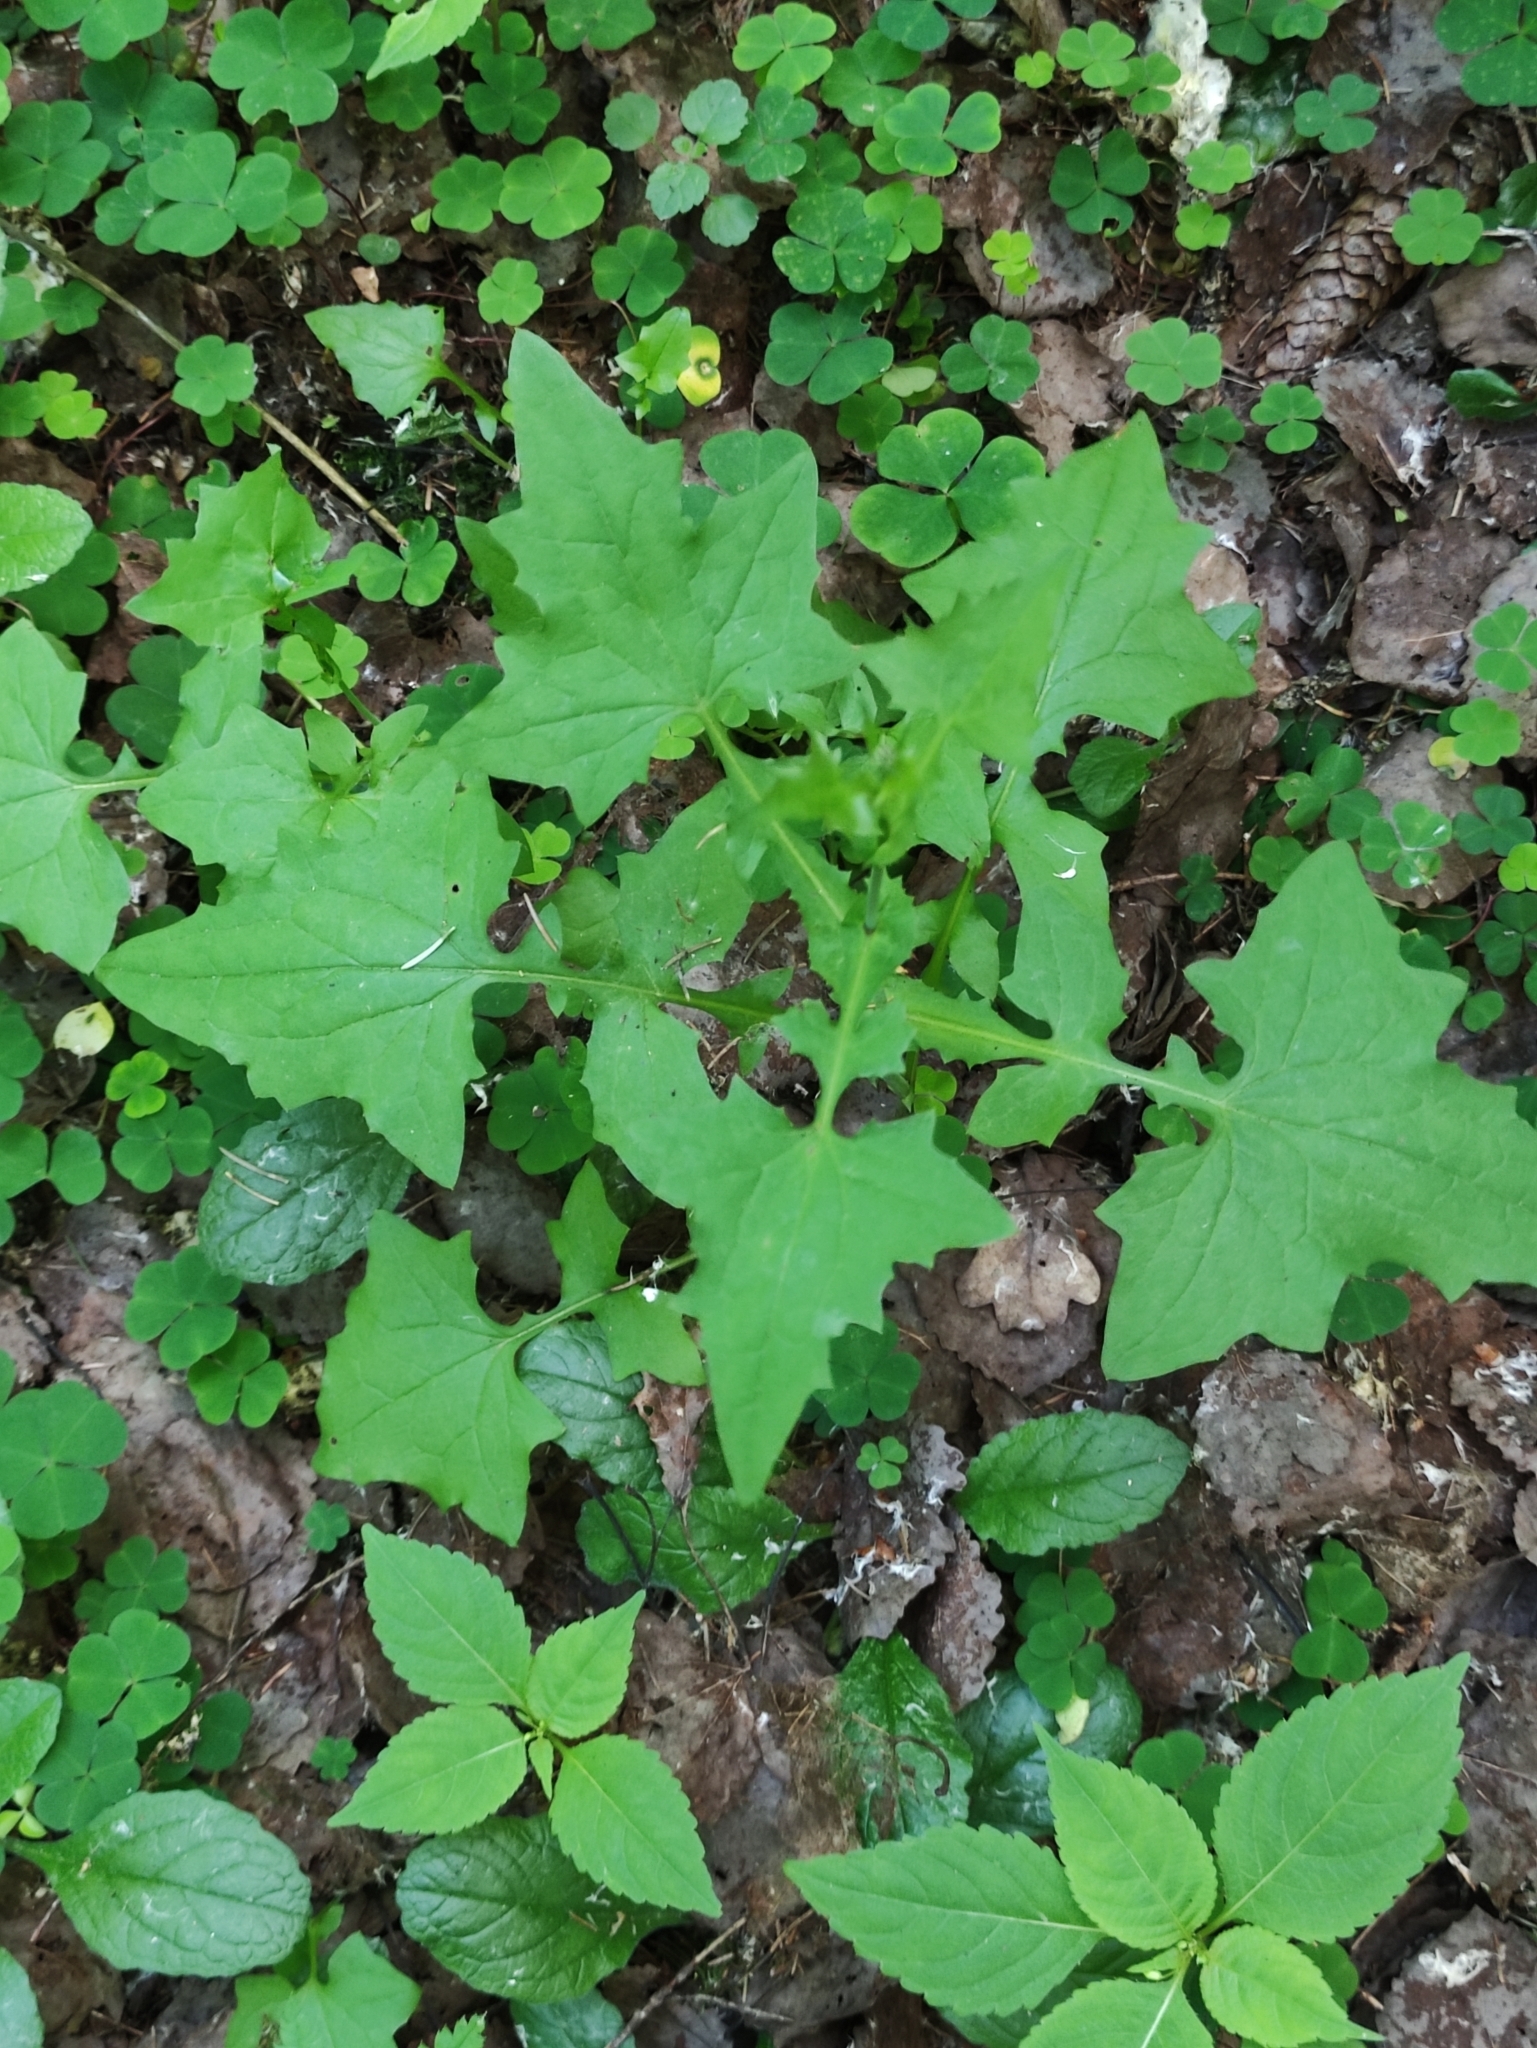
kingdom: Plantae
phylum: Tracheophyta
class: Magnoliopsida
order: Asterales
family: Asteraceae
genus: Mycelis
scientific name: Mycelis muralis
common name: Wall lettuce
